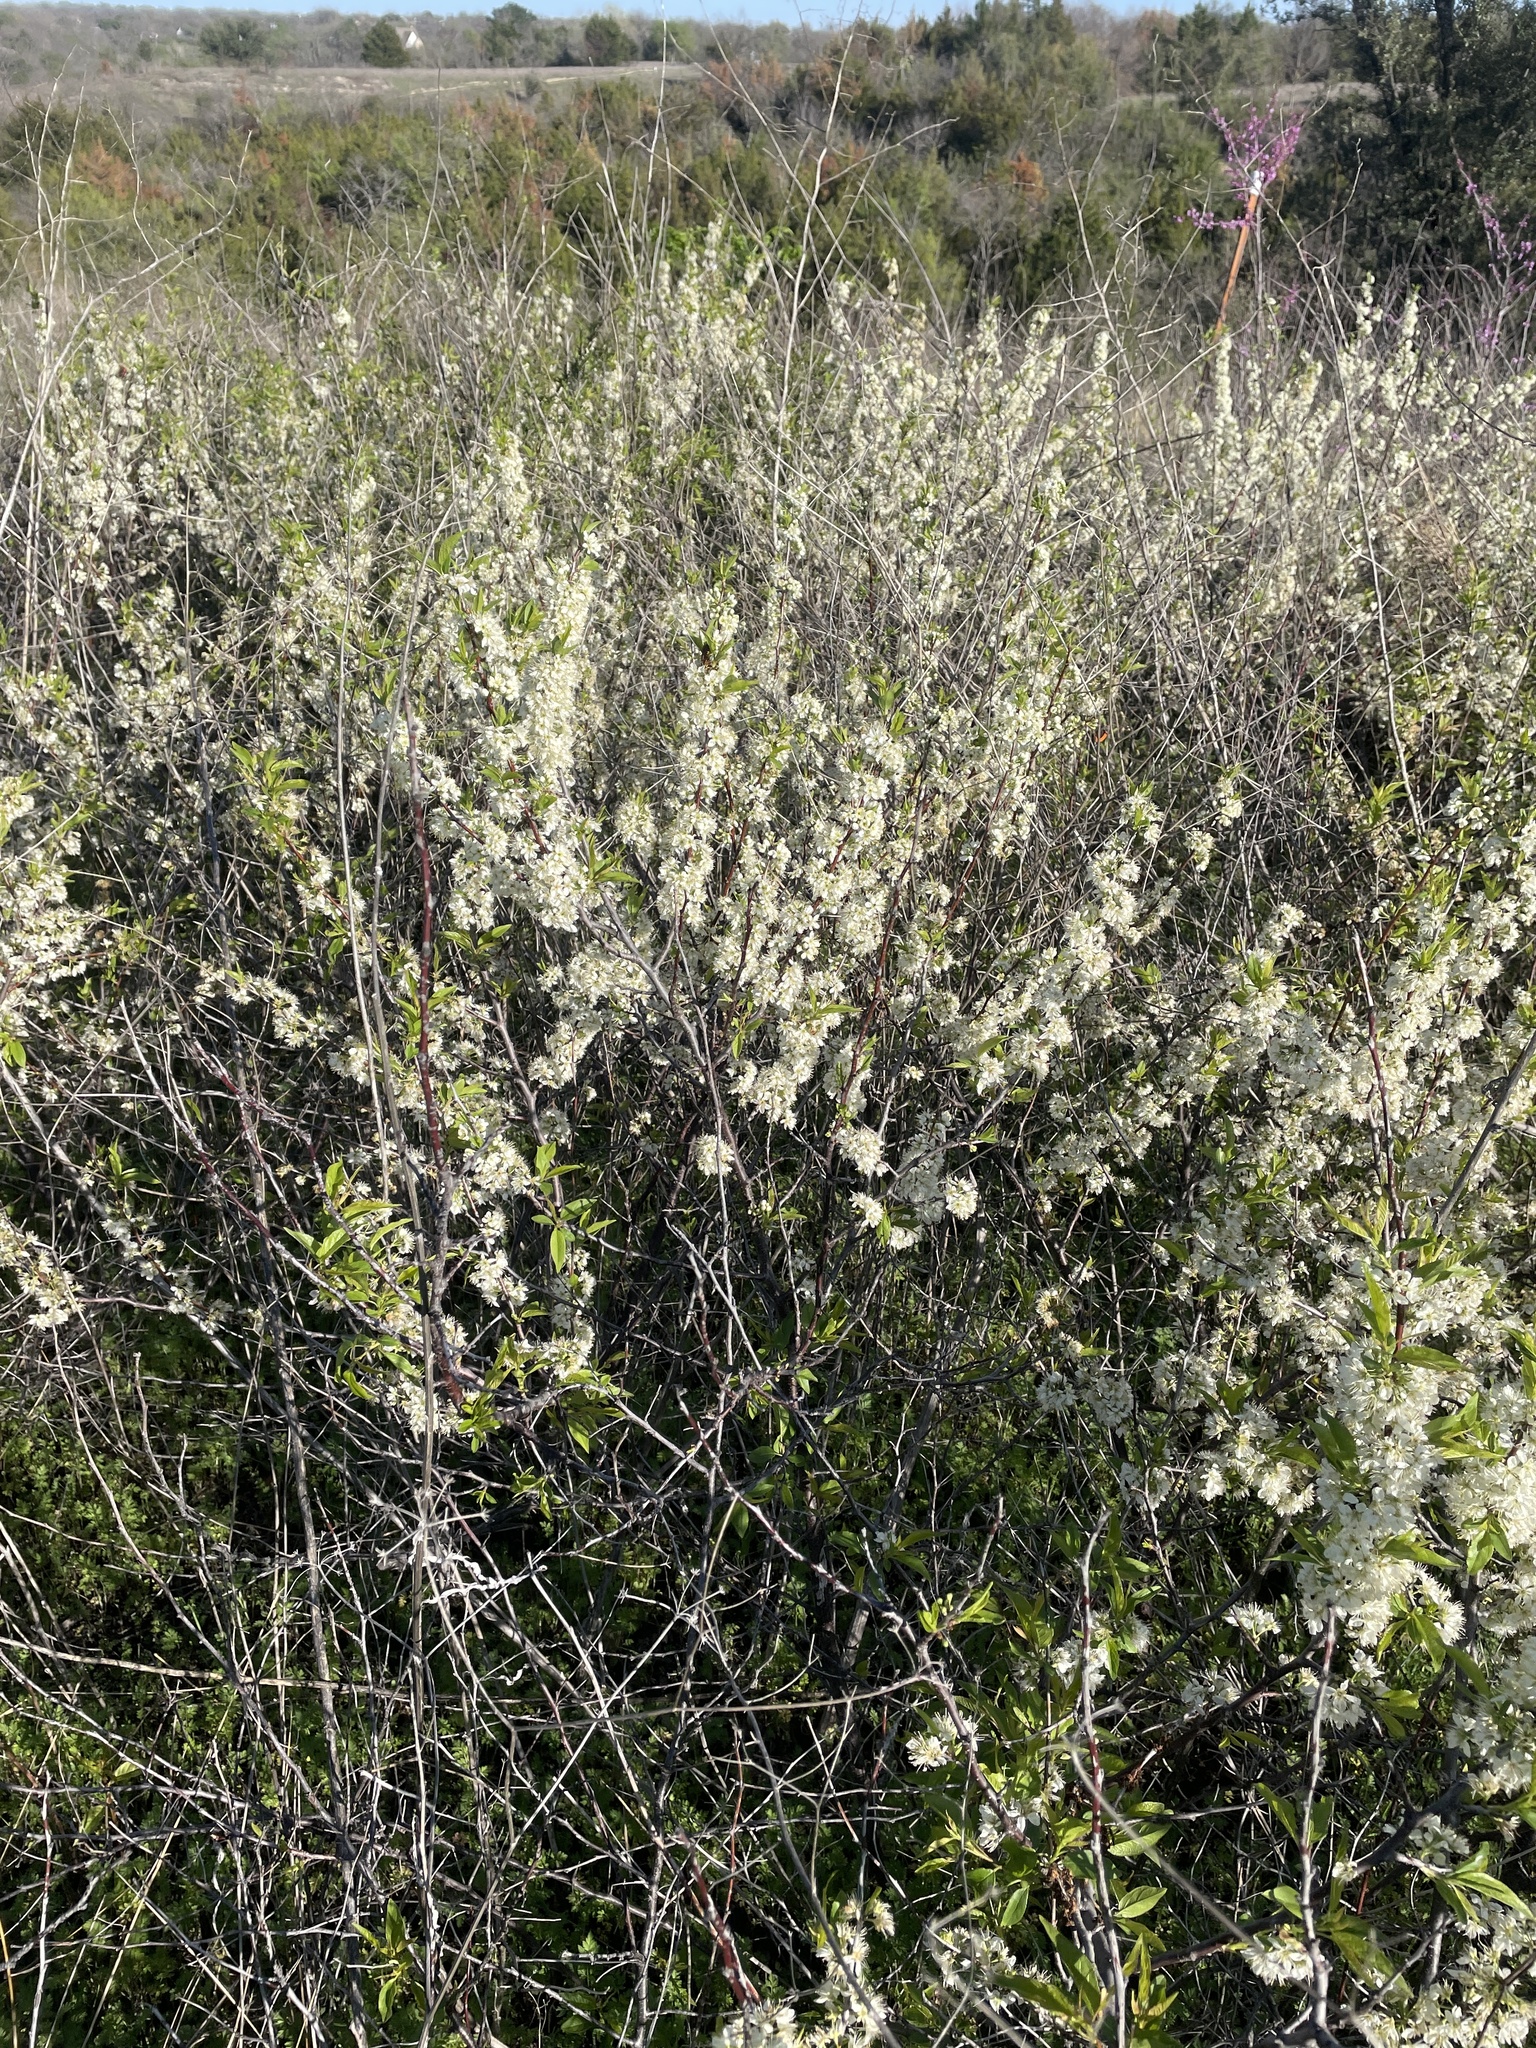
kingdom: Plantae
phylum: Tracheophyta
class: Magnoliopsida
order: Rosales
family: Rosaceae
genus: Prunus
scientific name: Prunus rivularis
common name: Creek plum
